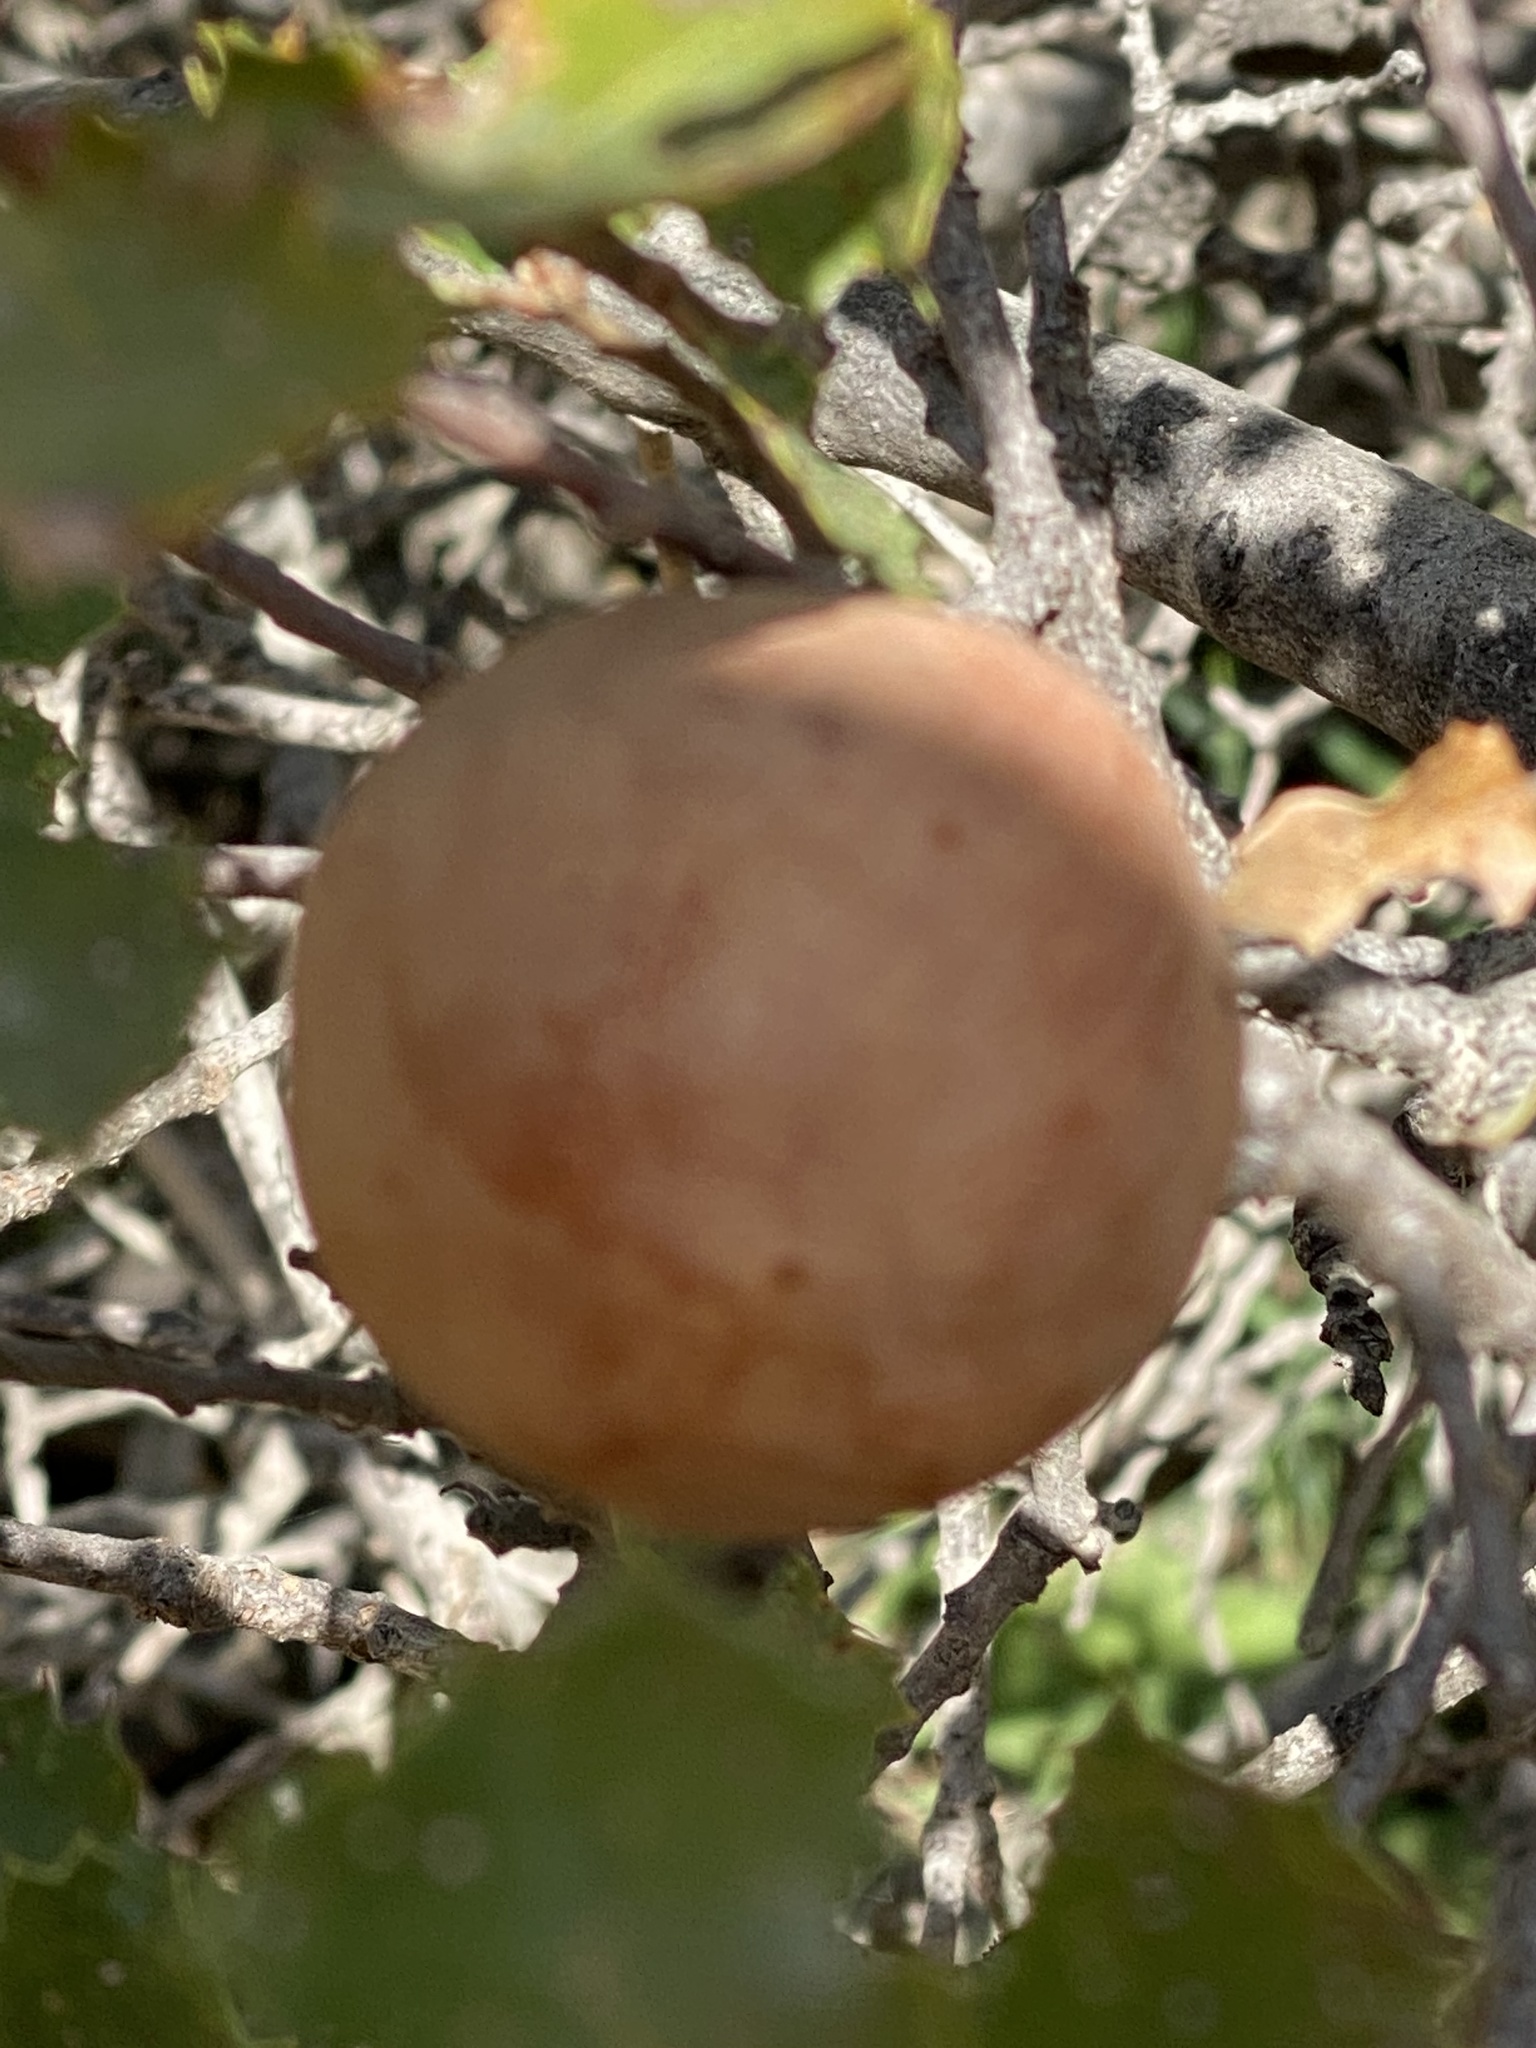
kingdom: Animalia
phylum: Arthropoda
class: Insecta
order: Hymenoptera
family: Cynipidae
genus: Amphibolips
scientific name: Amphibolips quercuspomiformis
